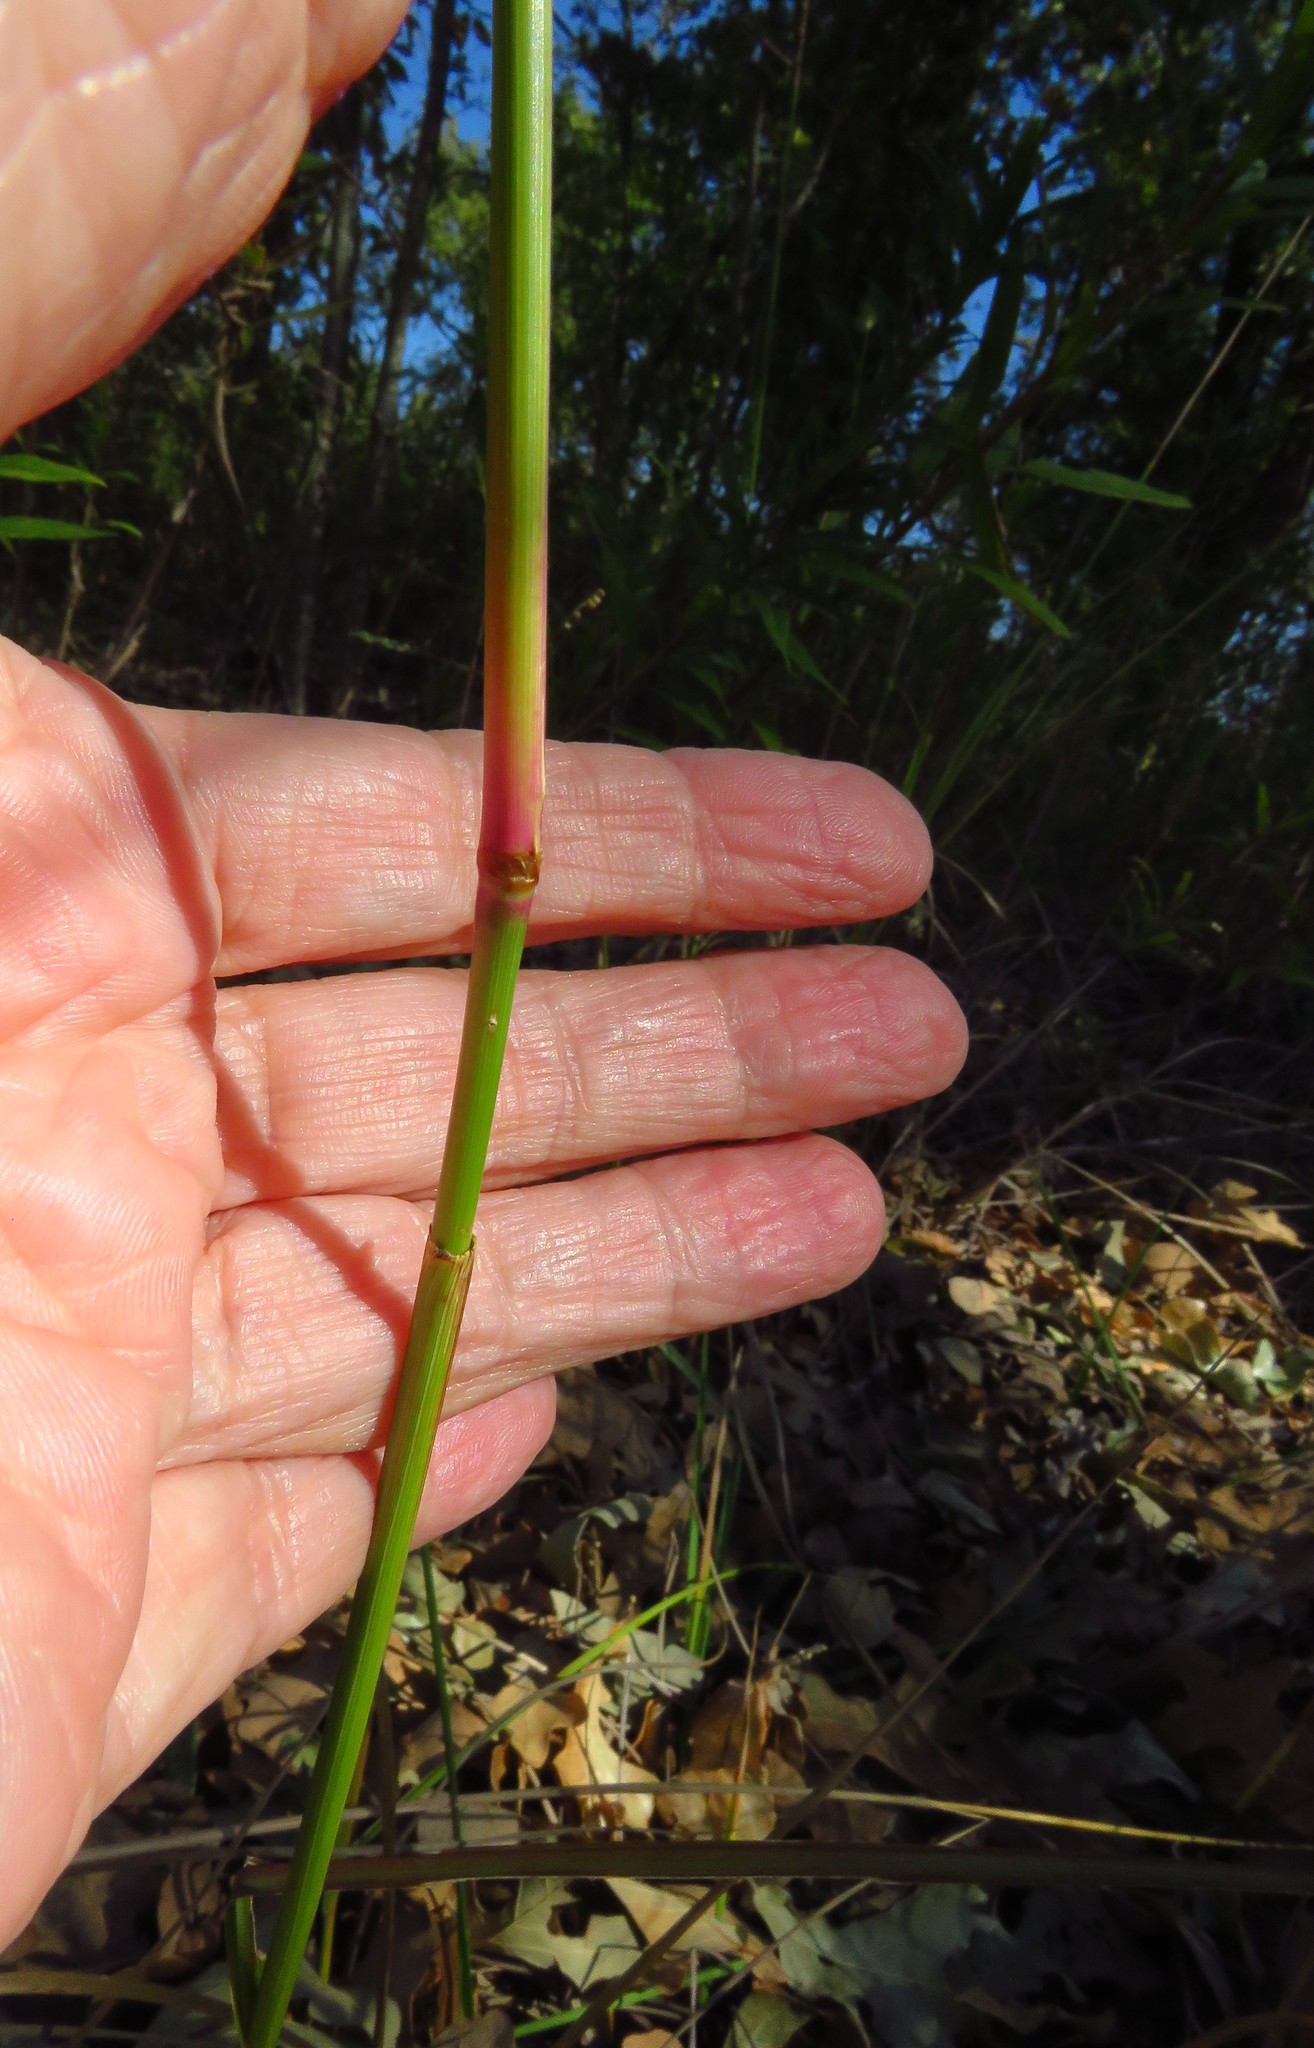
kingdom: Plantae
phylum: Tracheophyta
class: Liliopsida
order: Poales
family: Poaceae
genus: Tridens
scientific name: Tridens strictus
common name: Long-spike tridens
